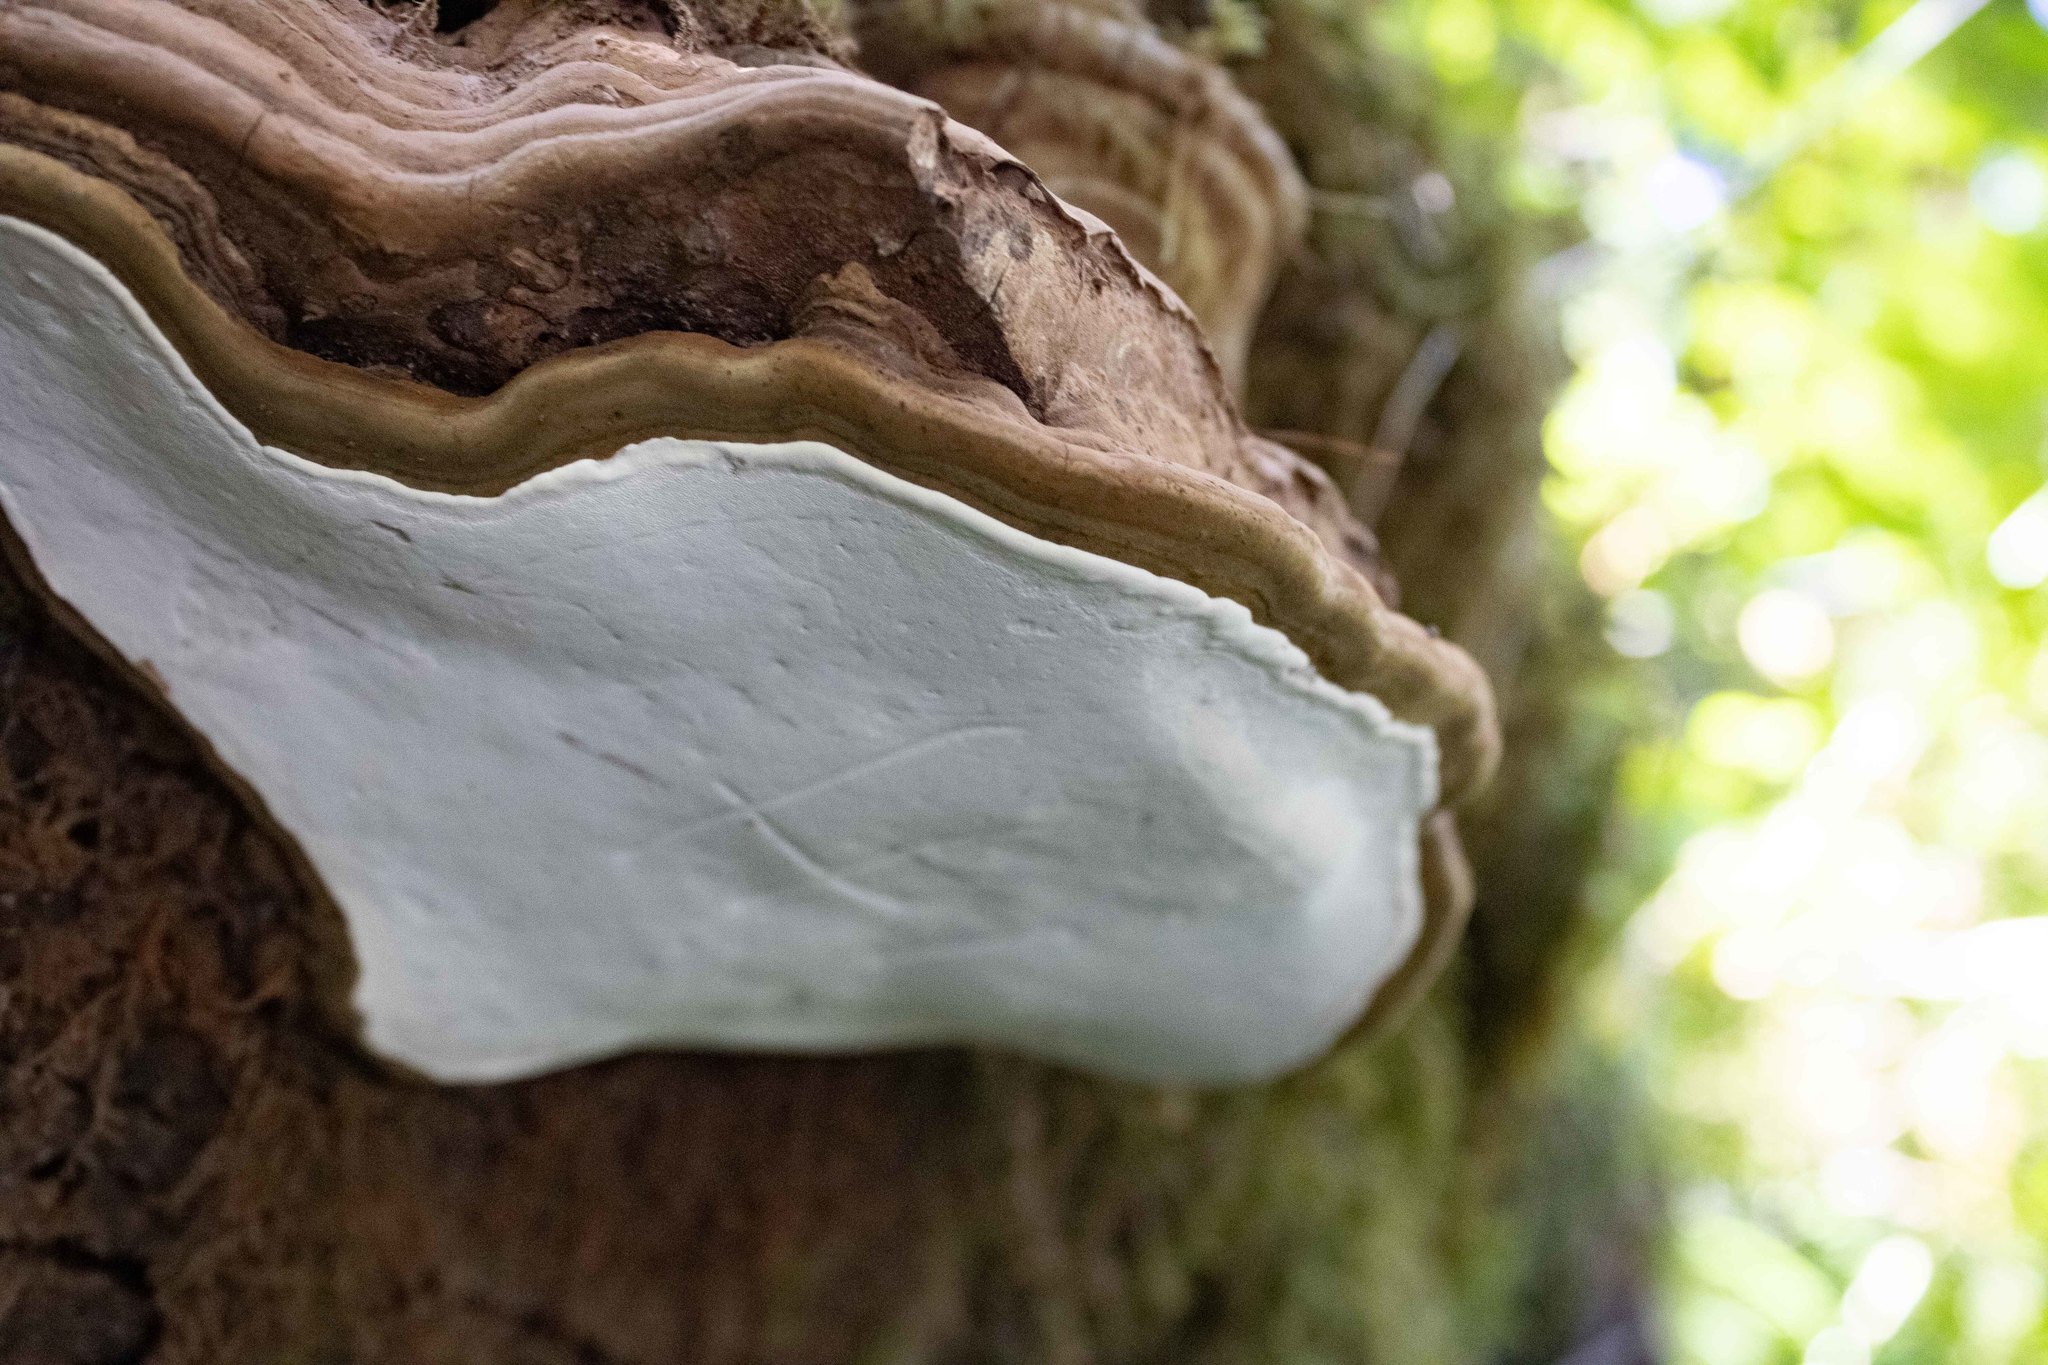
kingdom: Fungi
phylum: Basidiomycota
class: Agaricomycetes
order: Polyporales
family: Polyporaceae
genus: Ganoderma
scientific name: Ganoderma applanatum
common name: Artist's bracket
